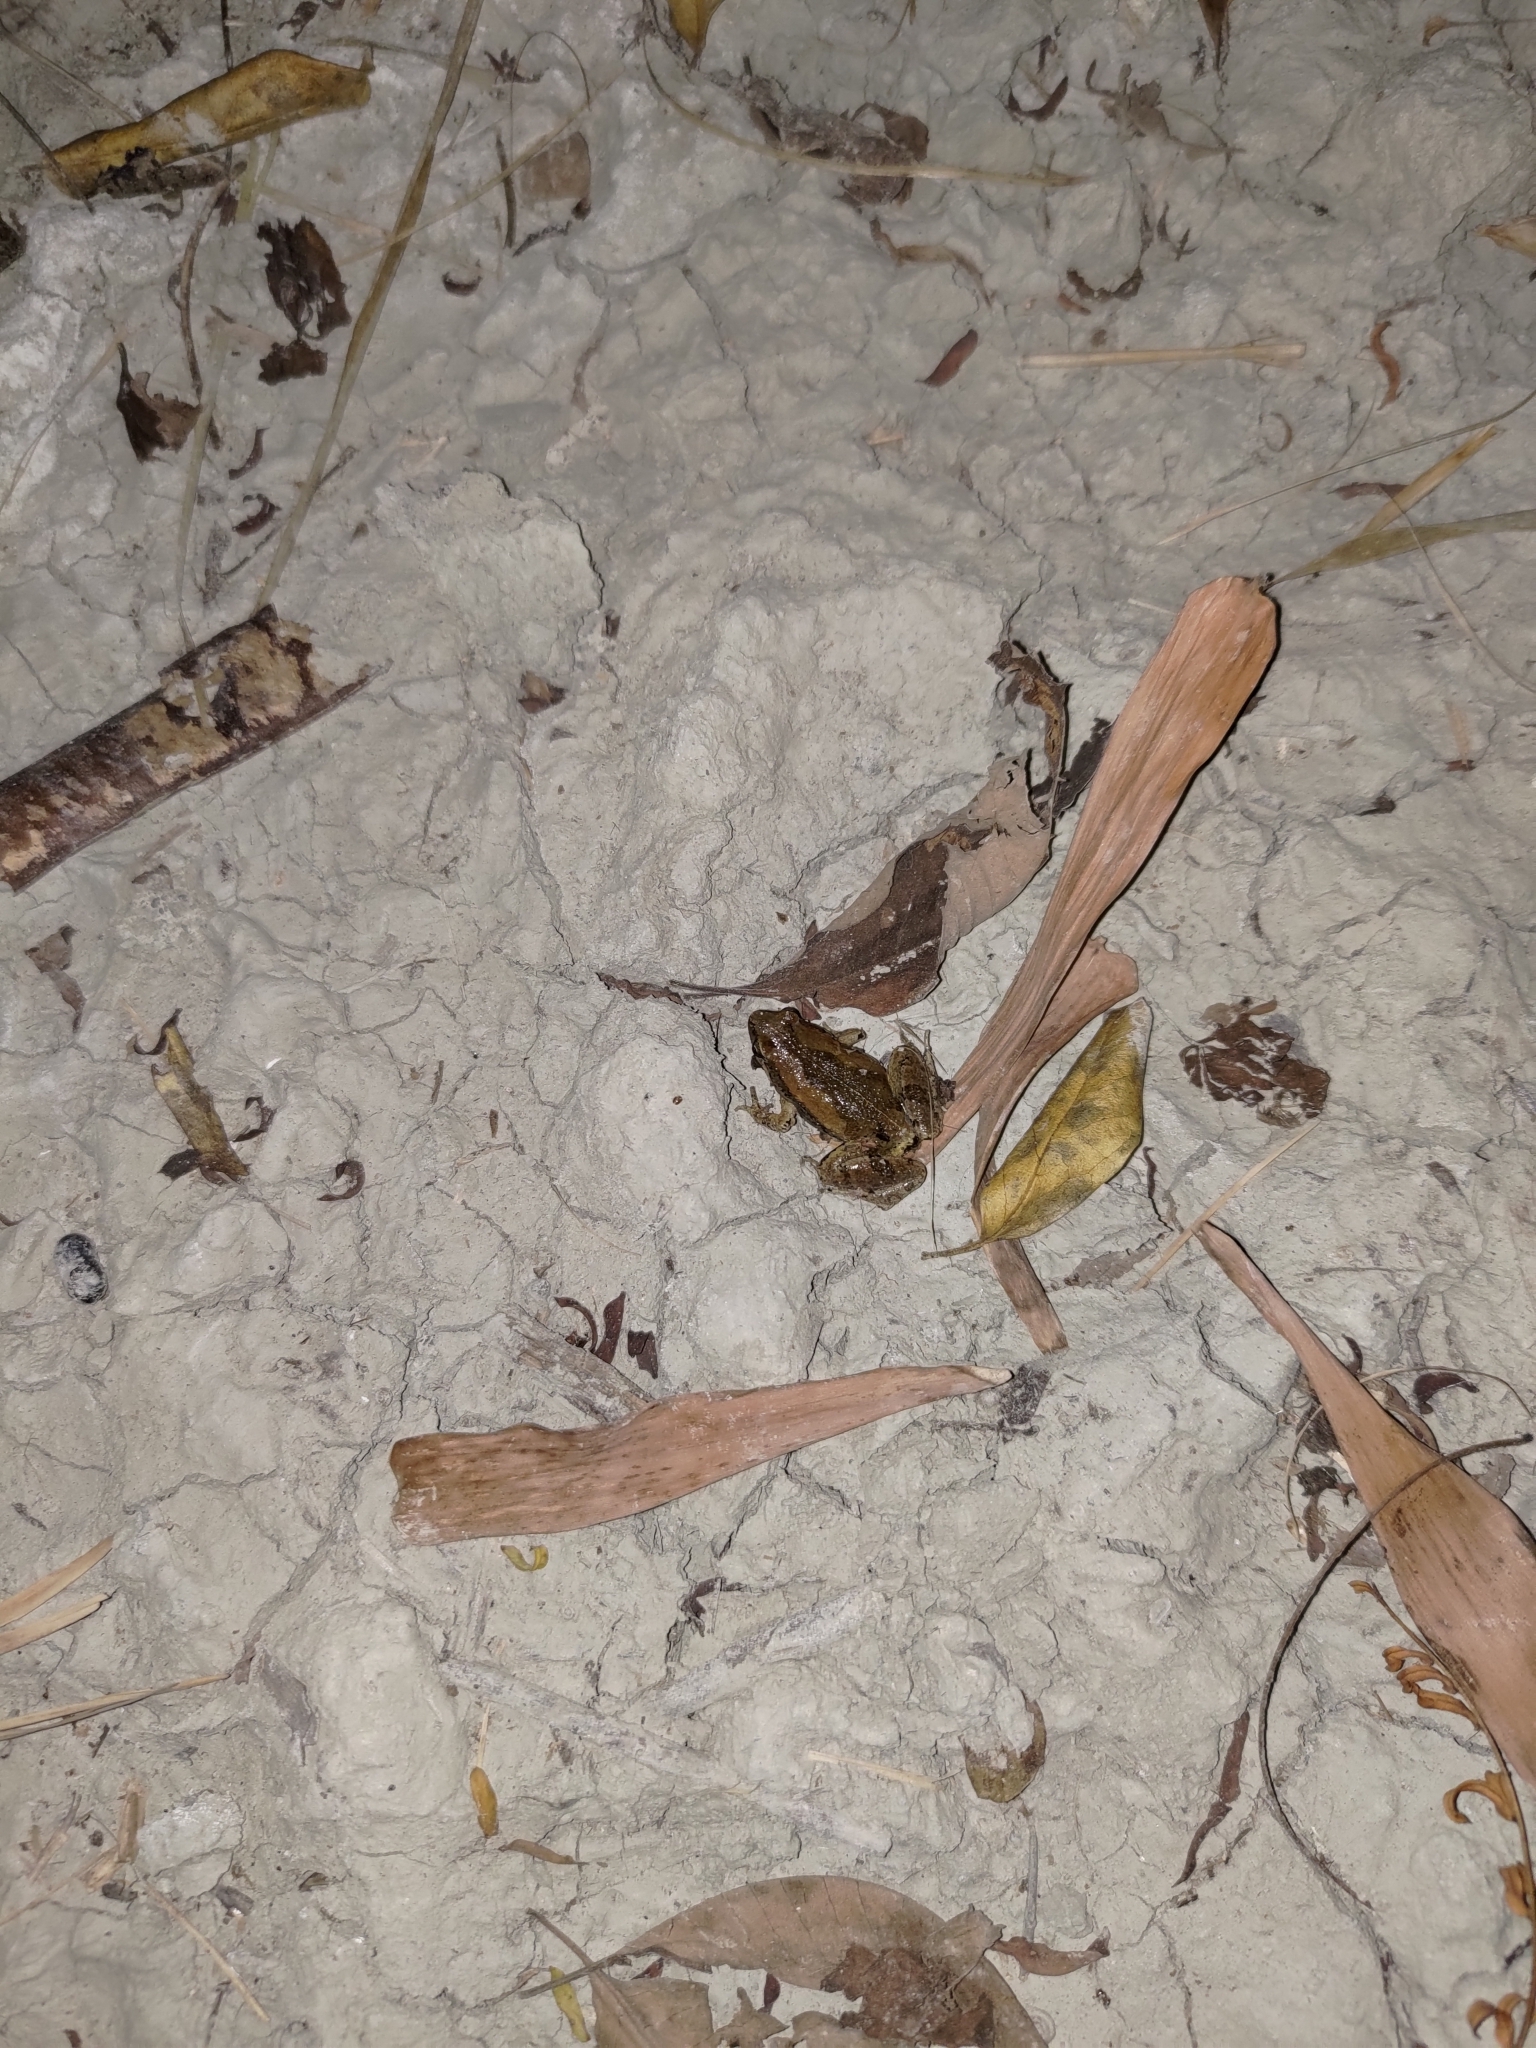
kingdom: Animalia
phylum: Chordata
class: Amphibia
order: Anura
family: Microhylidae
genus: Microhyla
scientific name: Microhyla fissipes
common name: Ornate narrow-mouthed frog
